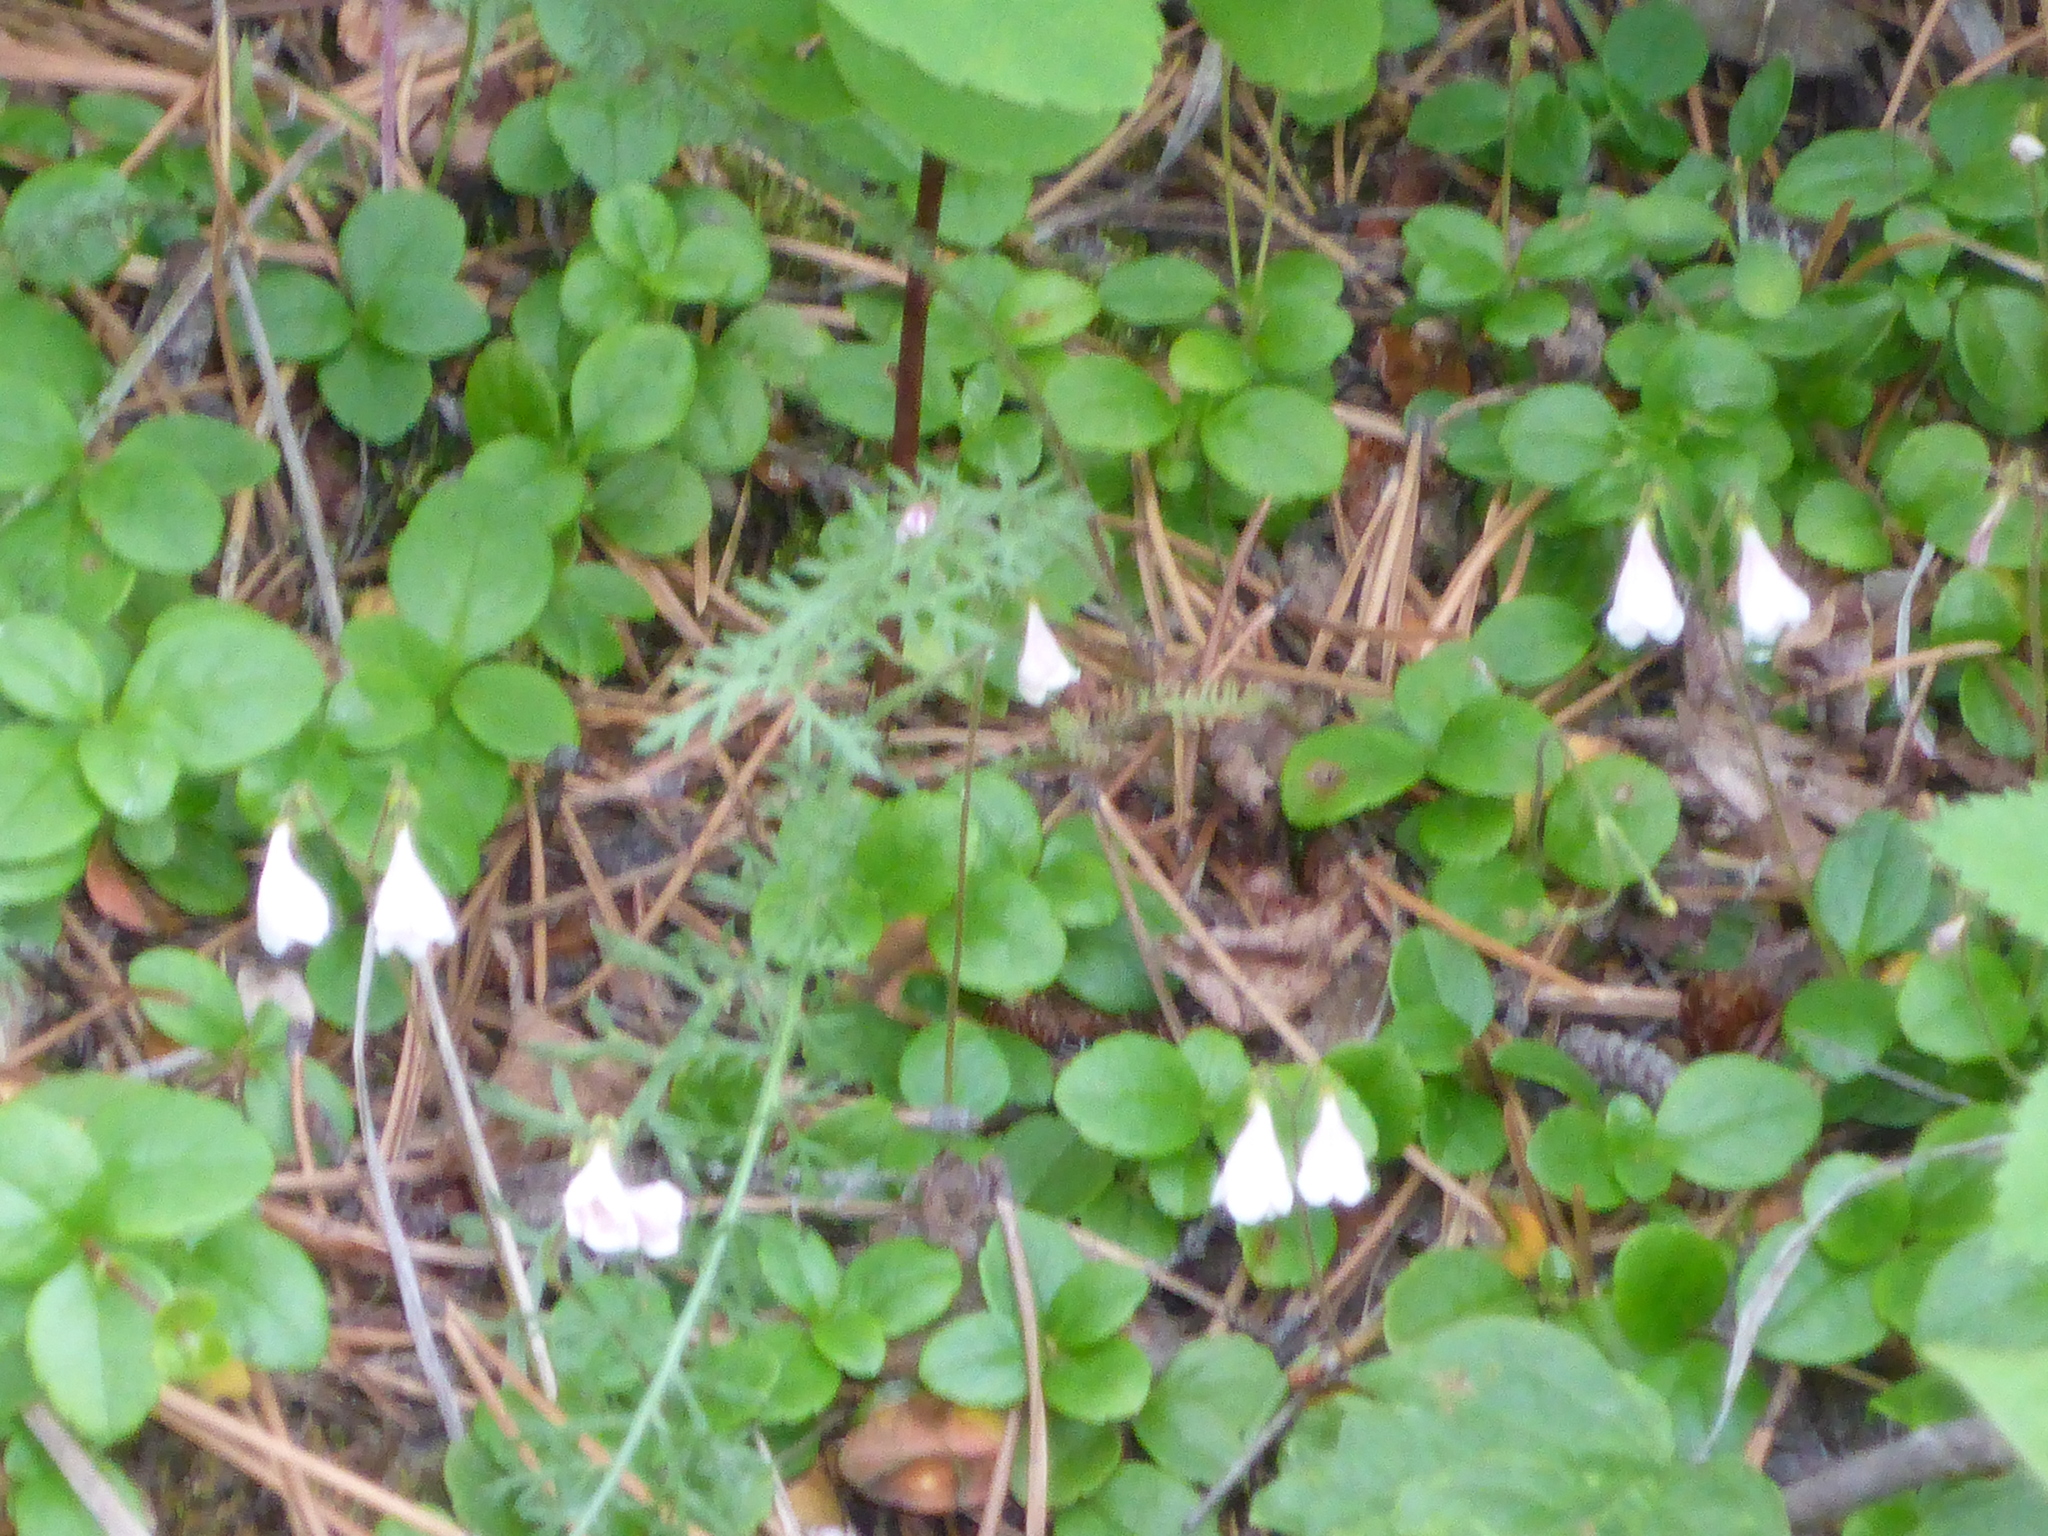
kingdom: Plantae
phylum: Tracheophyta
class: Magnoliopsida
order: Dipsacales
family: Caprifoliaceae
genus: Linnaea
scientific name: Linnaea borealis
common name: Twinflower
